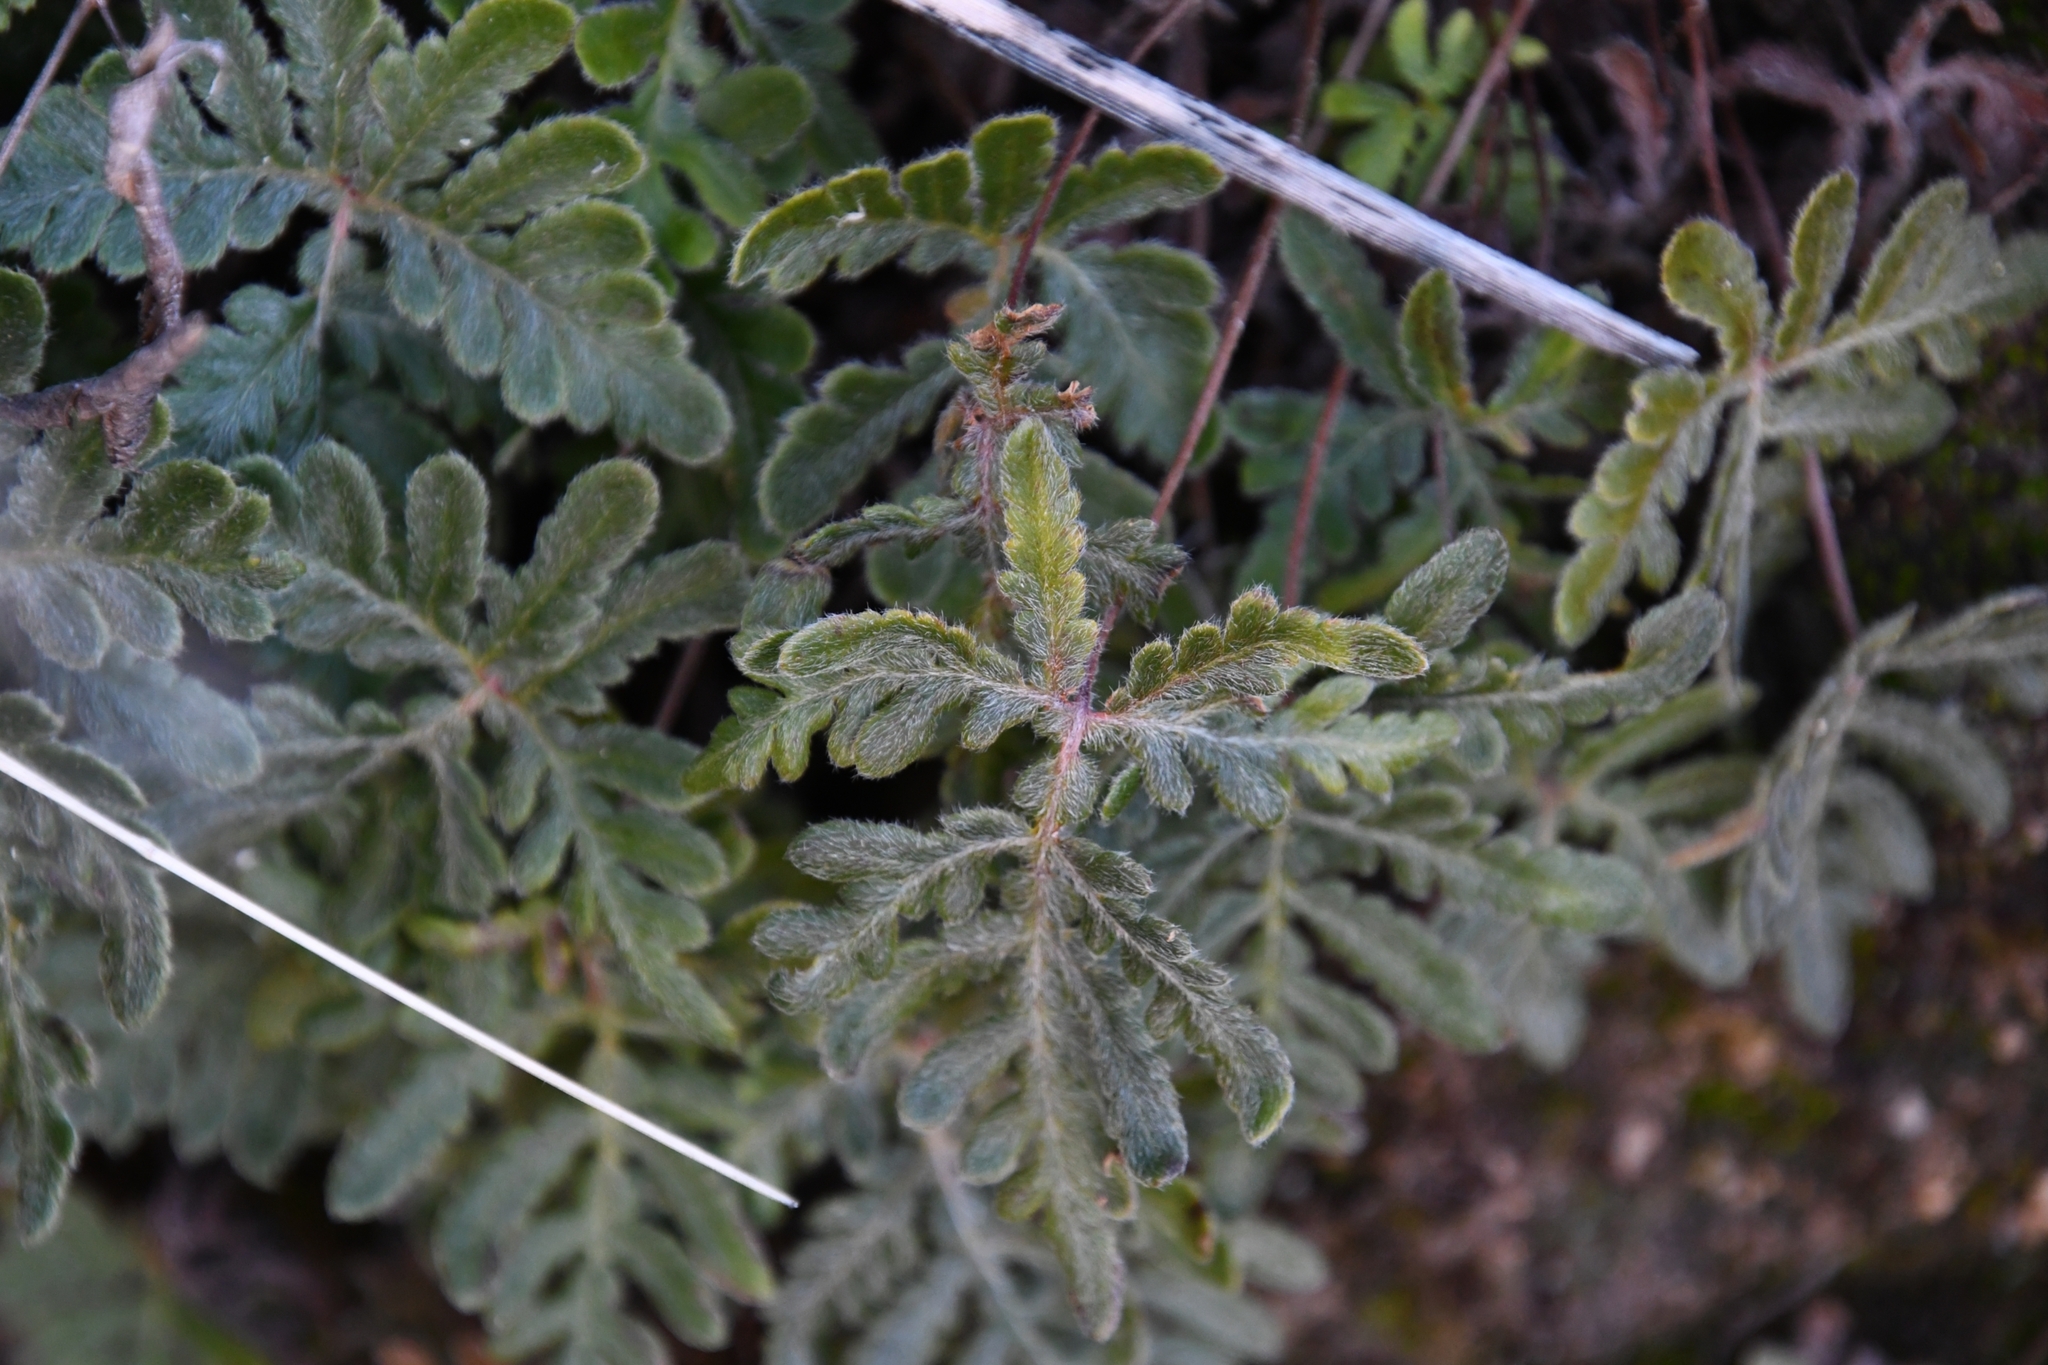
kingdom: Plantae
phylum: Tracheophyta
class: Polypodiopsida
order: Polypodiales
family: Pteridaceae
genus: Bommeria
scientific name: Bommeria hispida
